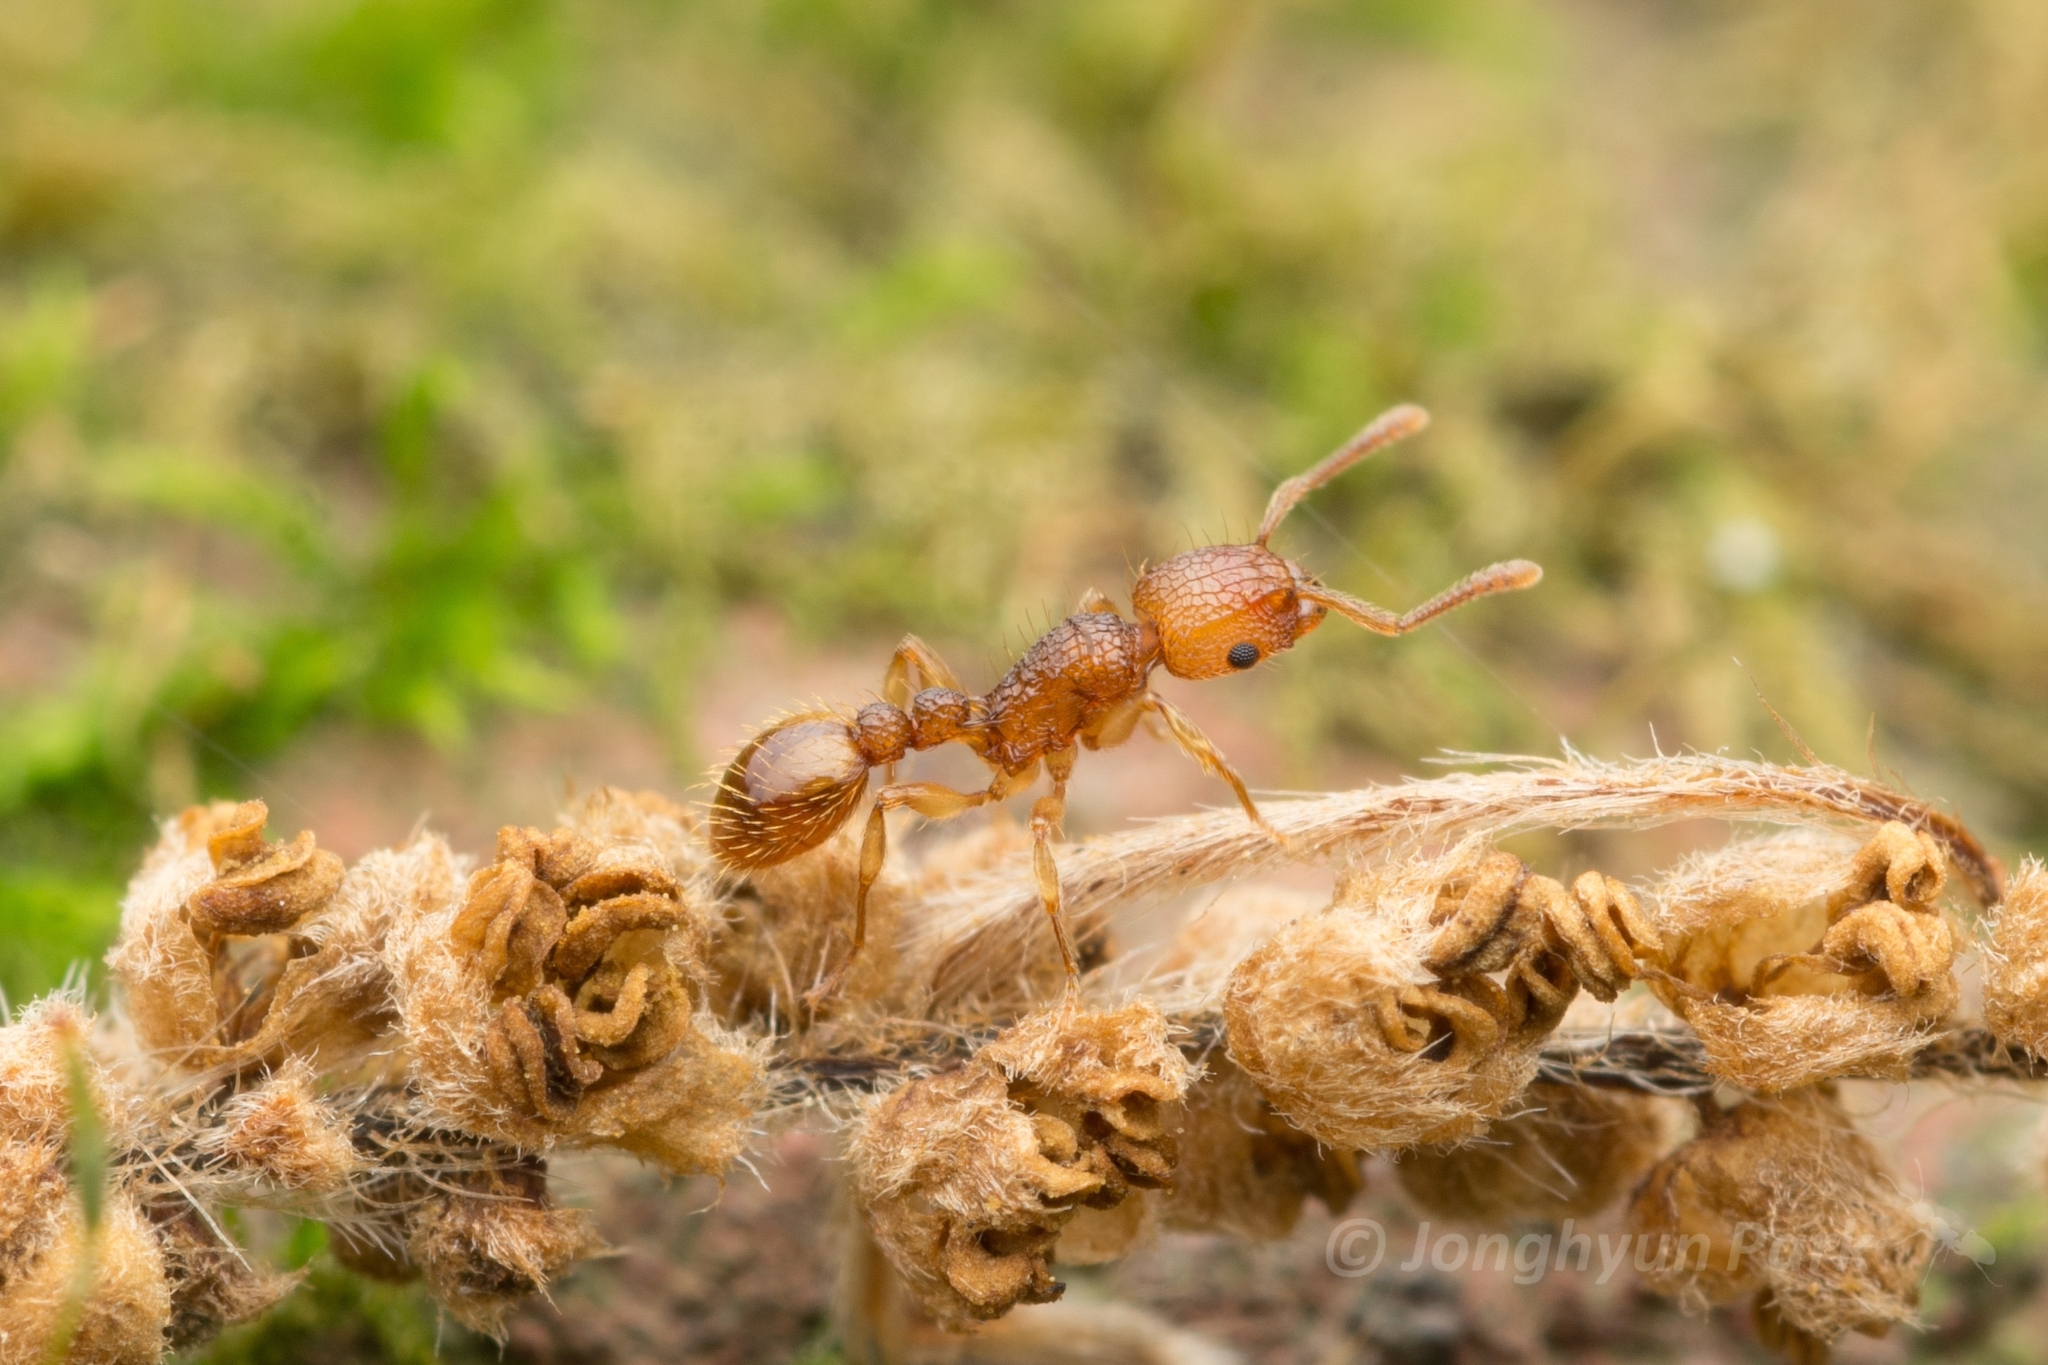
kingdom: Animalia
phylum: Arthropoda
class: Insecta
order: Hymenoptera
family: Formicidae
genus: Tetramorium
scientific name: Tetramorium nipponense
